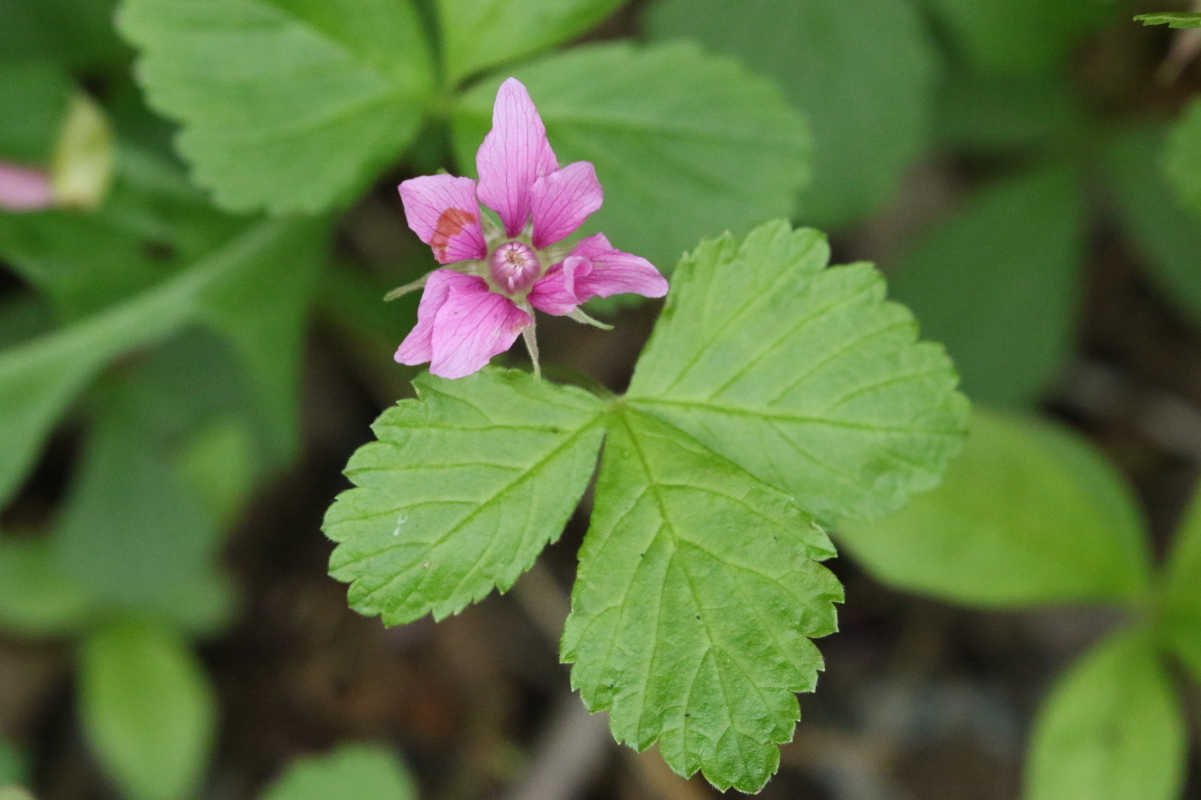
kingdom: Plantae
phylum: Tracheophyta
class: Magnoliopsida
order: Rosales
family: Rosaceae
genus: Rubus
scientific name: Rubus arcticus
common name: Arctic bramble
